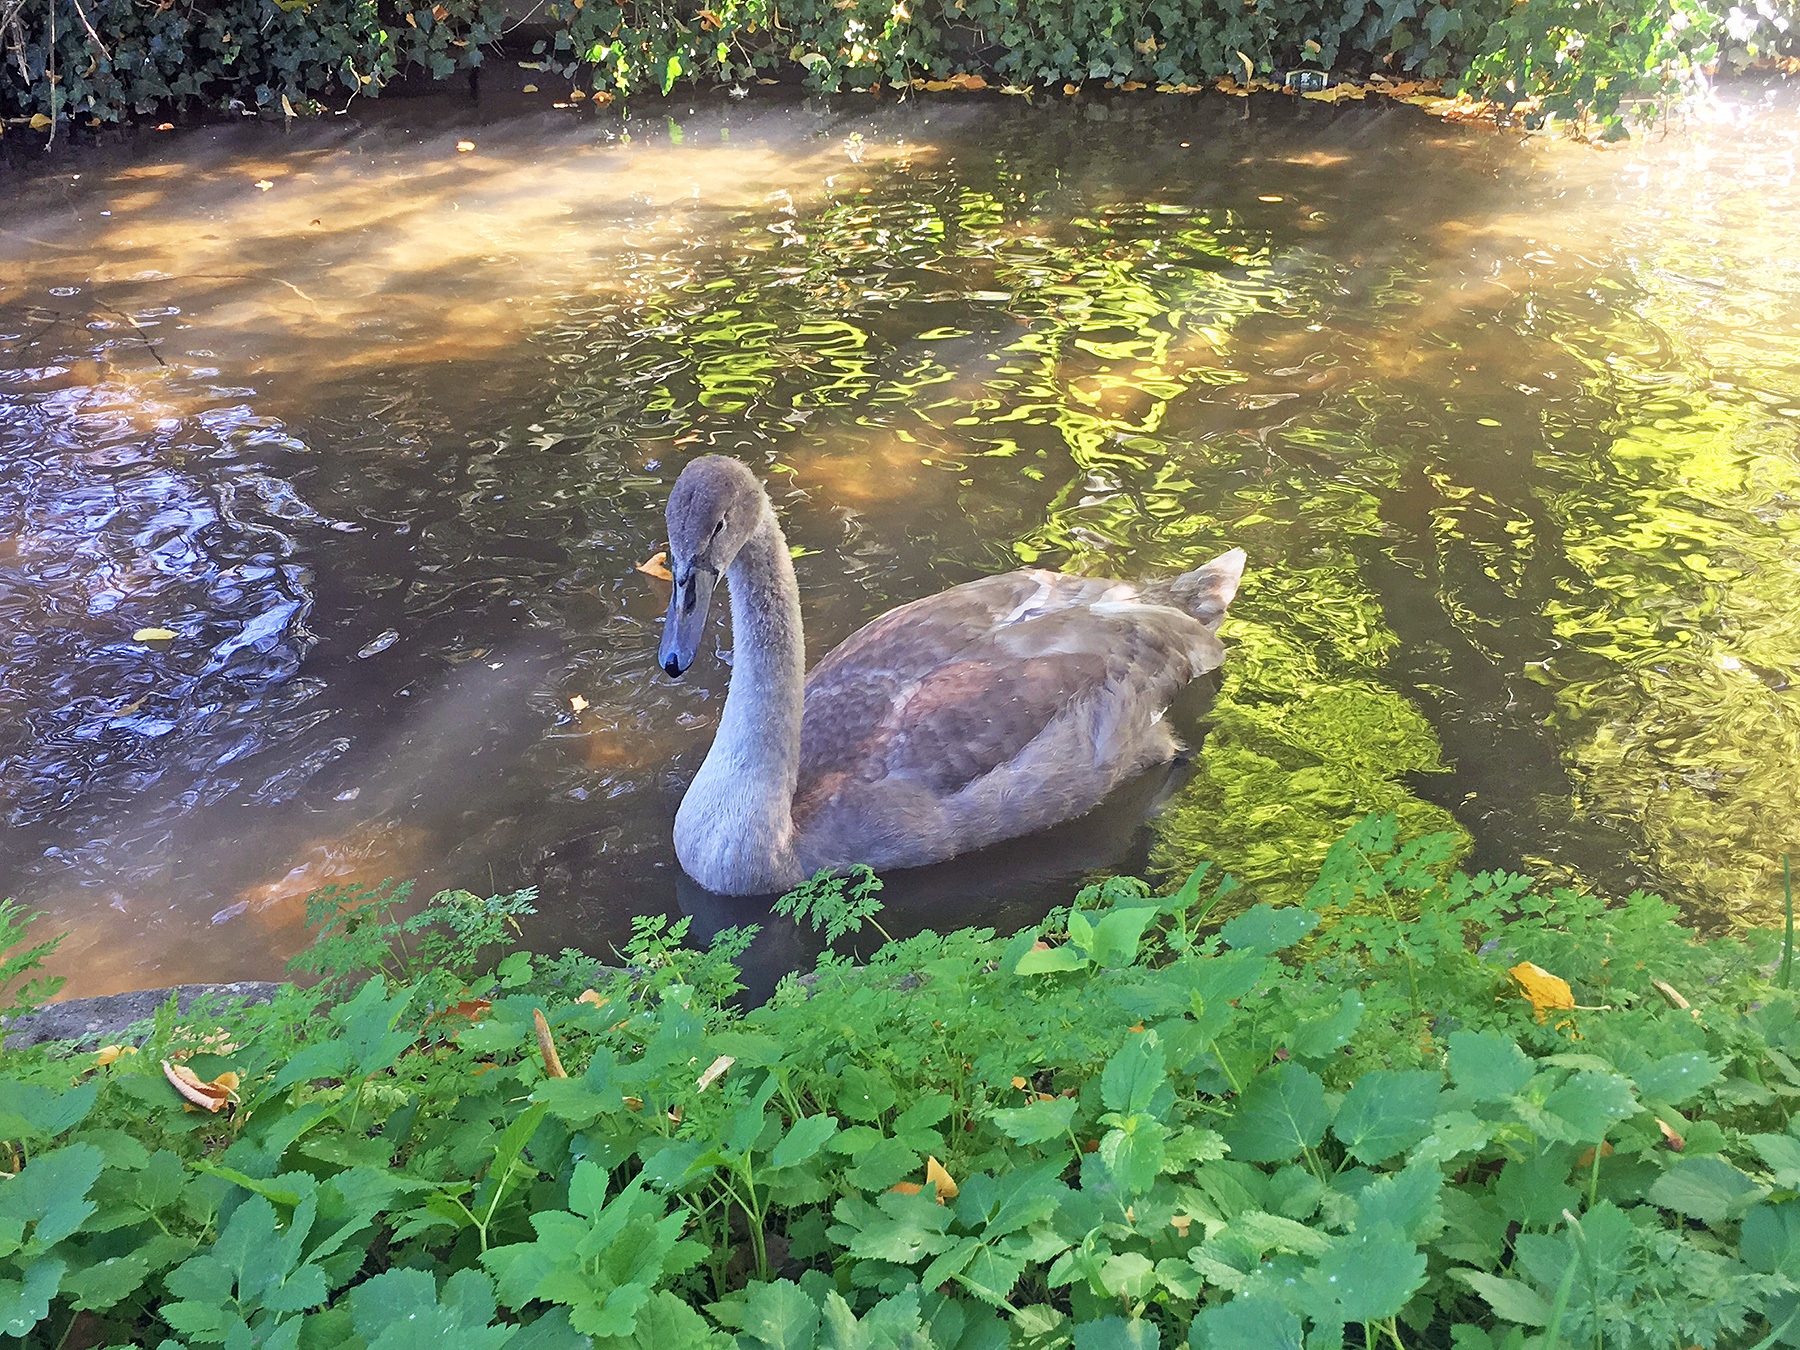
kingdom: Animalia
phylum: Chordata
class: Aves
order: Anseriformes
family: Anatidae
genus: Cygnus
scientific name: Cygnus olor
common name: Mute swan
